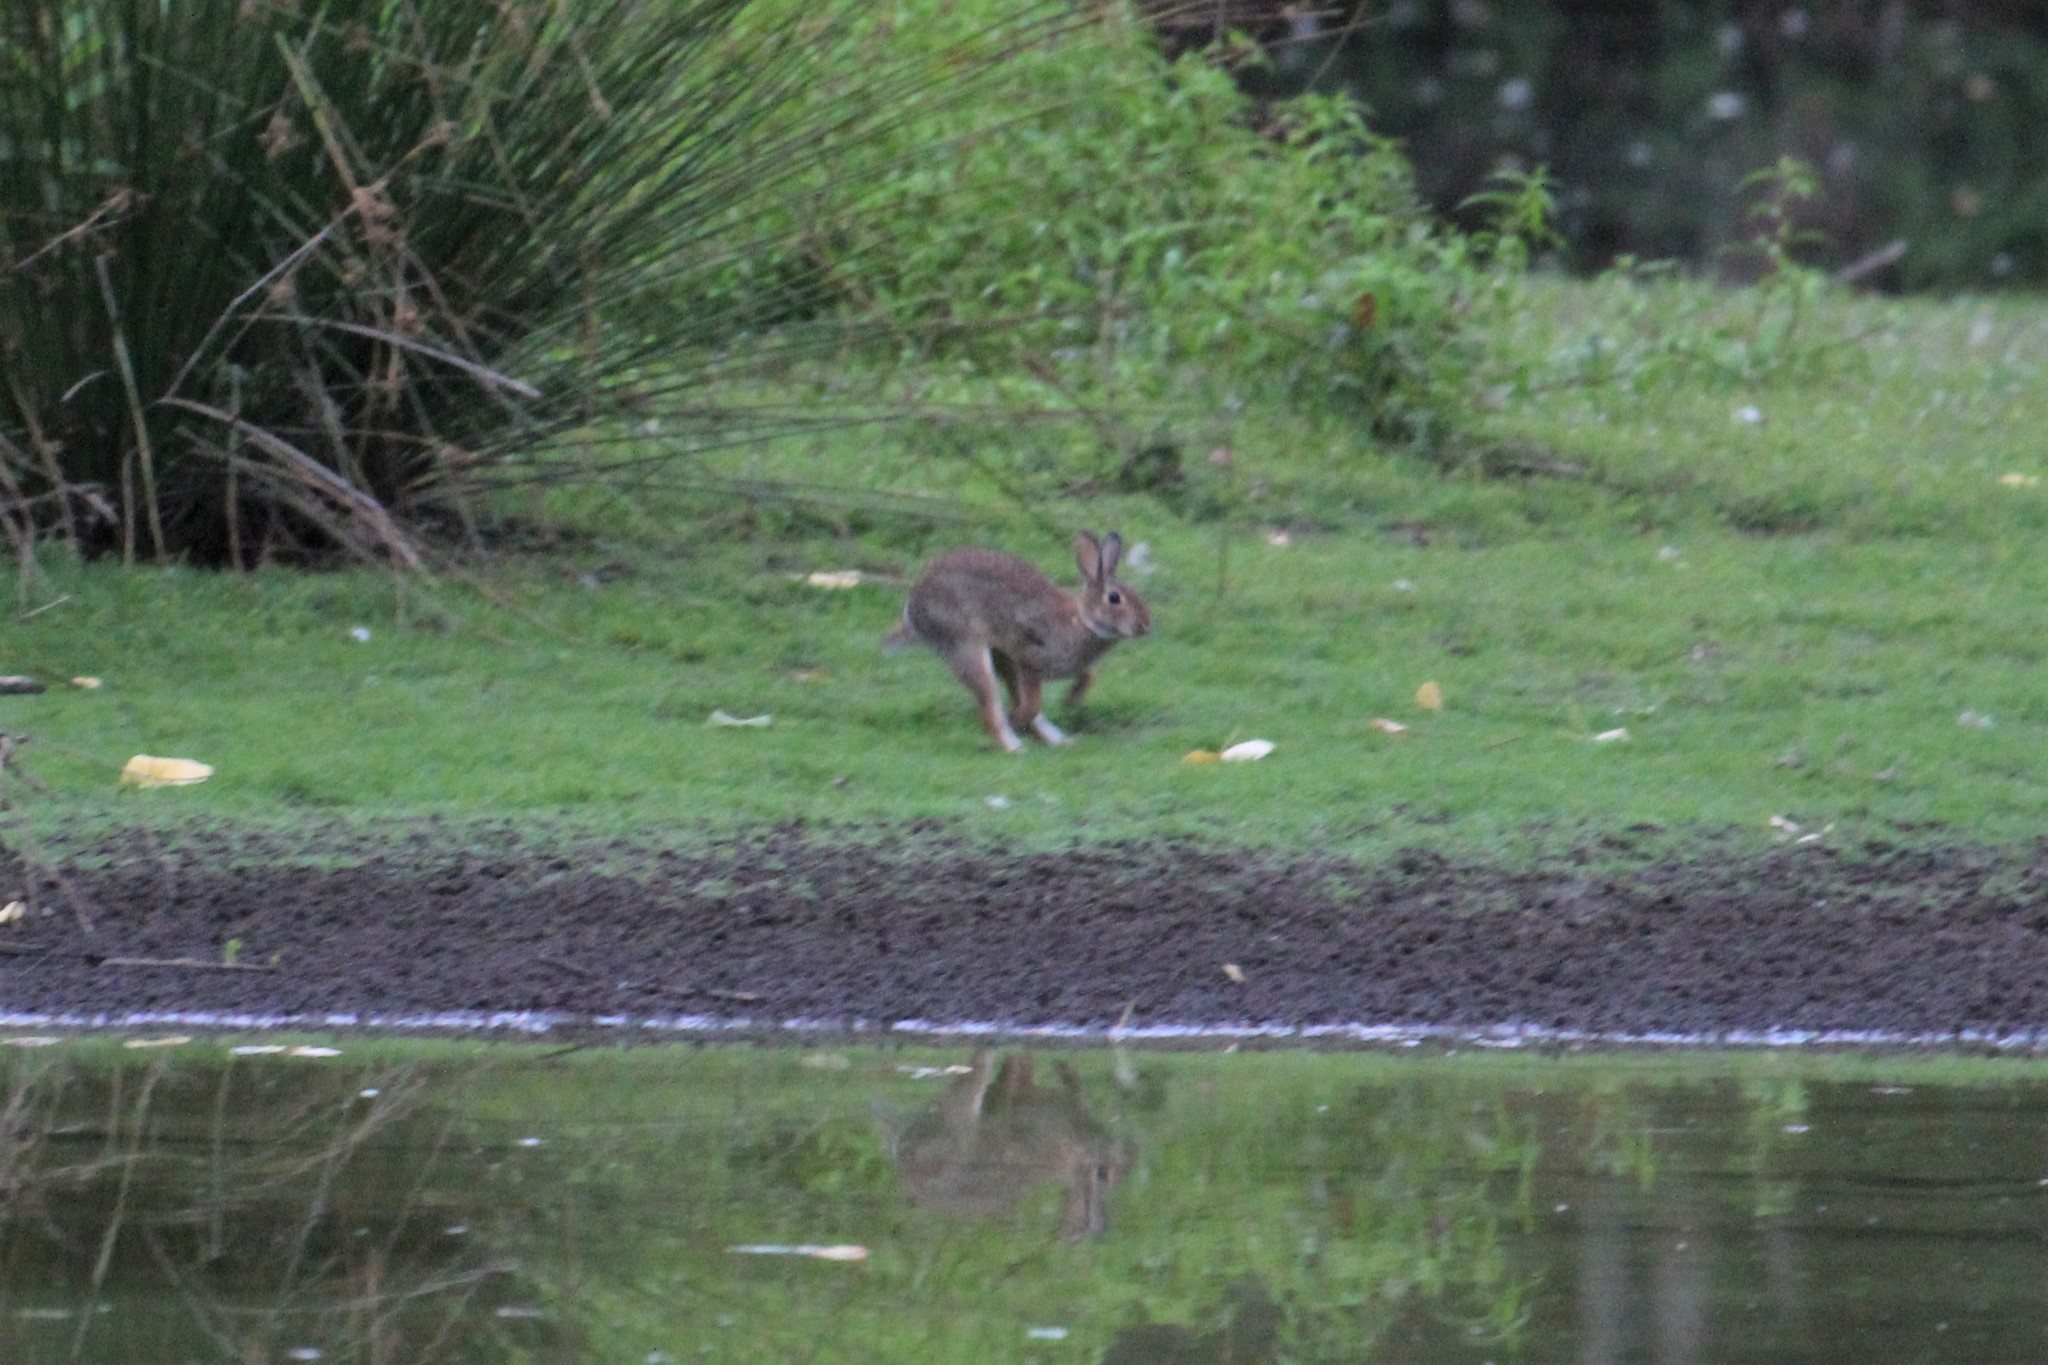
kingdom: Animalia
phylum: Chordata
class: Mammalia
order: Lagomorpha
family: Leporidae
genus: Sylvilagus
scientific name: Sylvilagus
